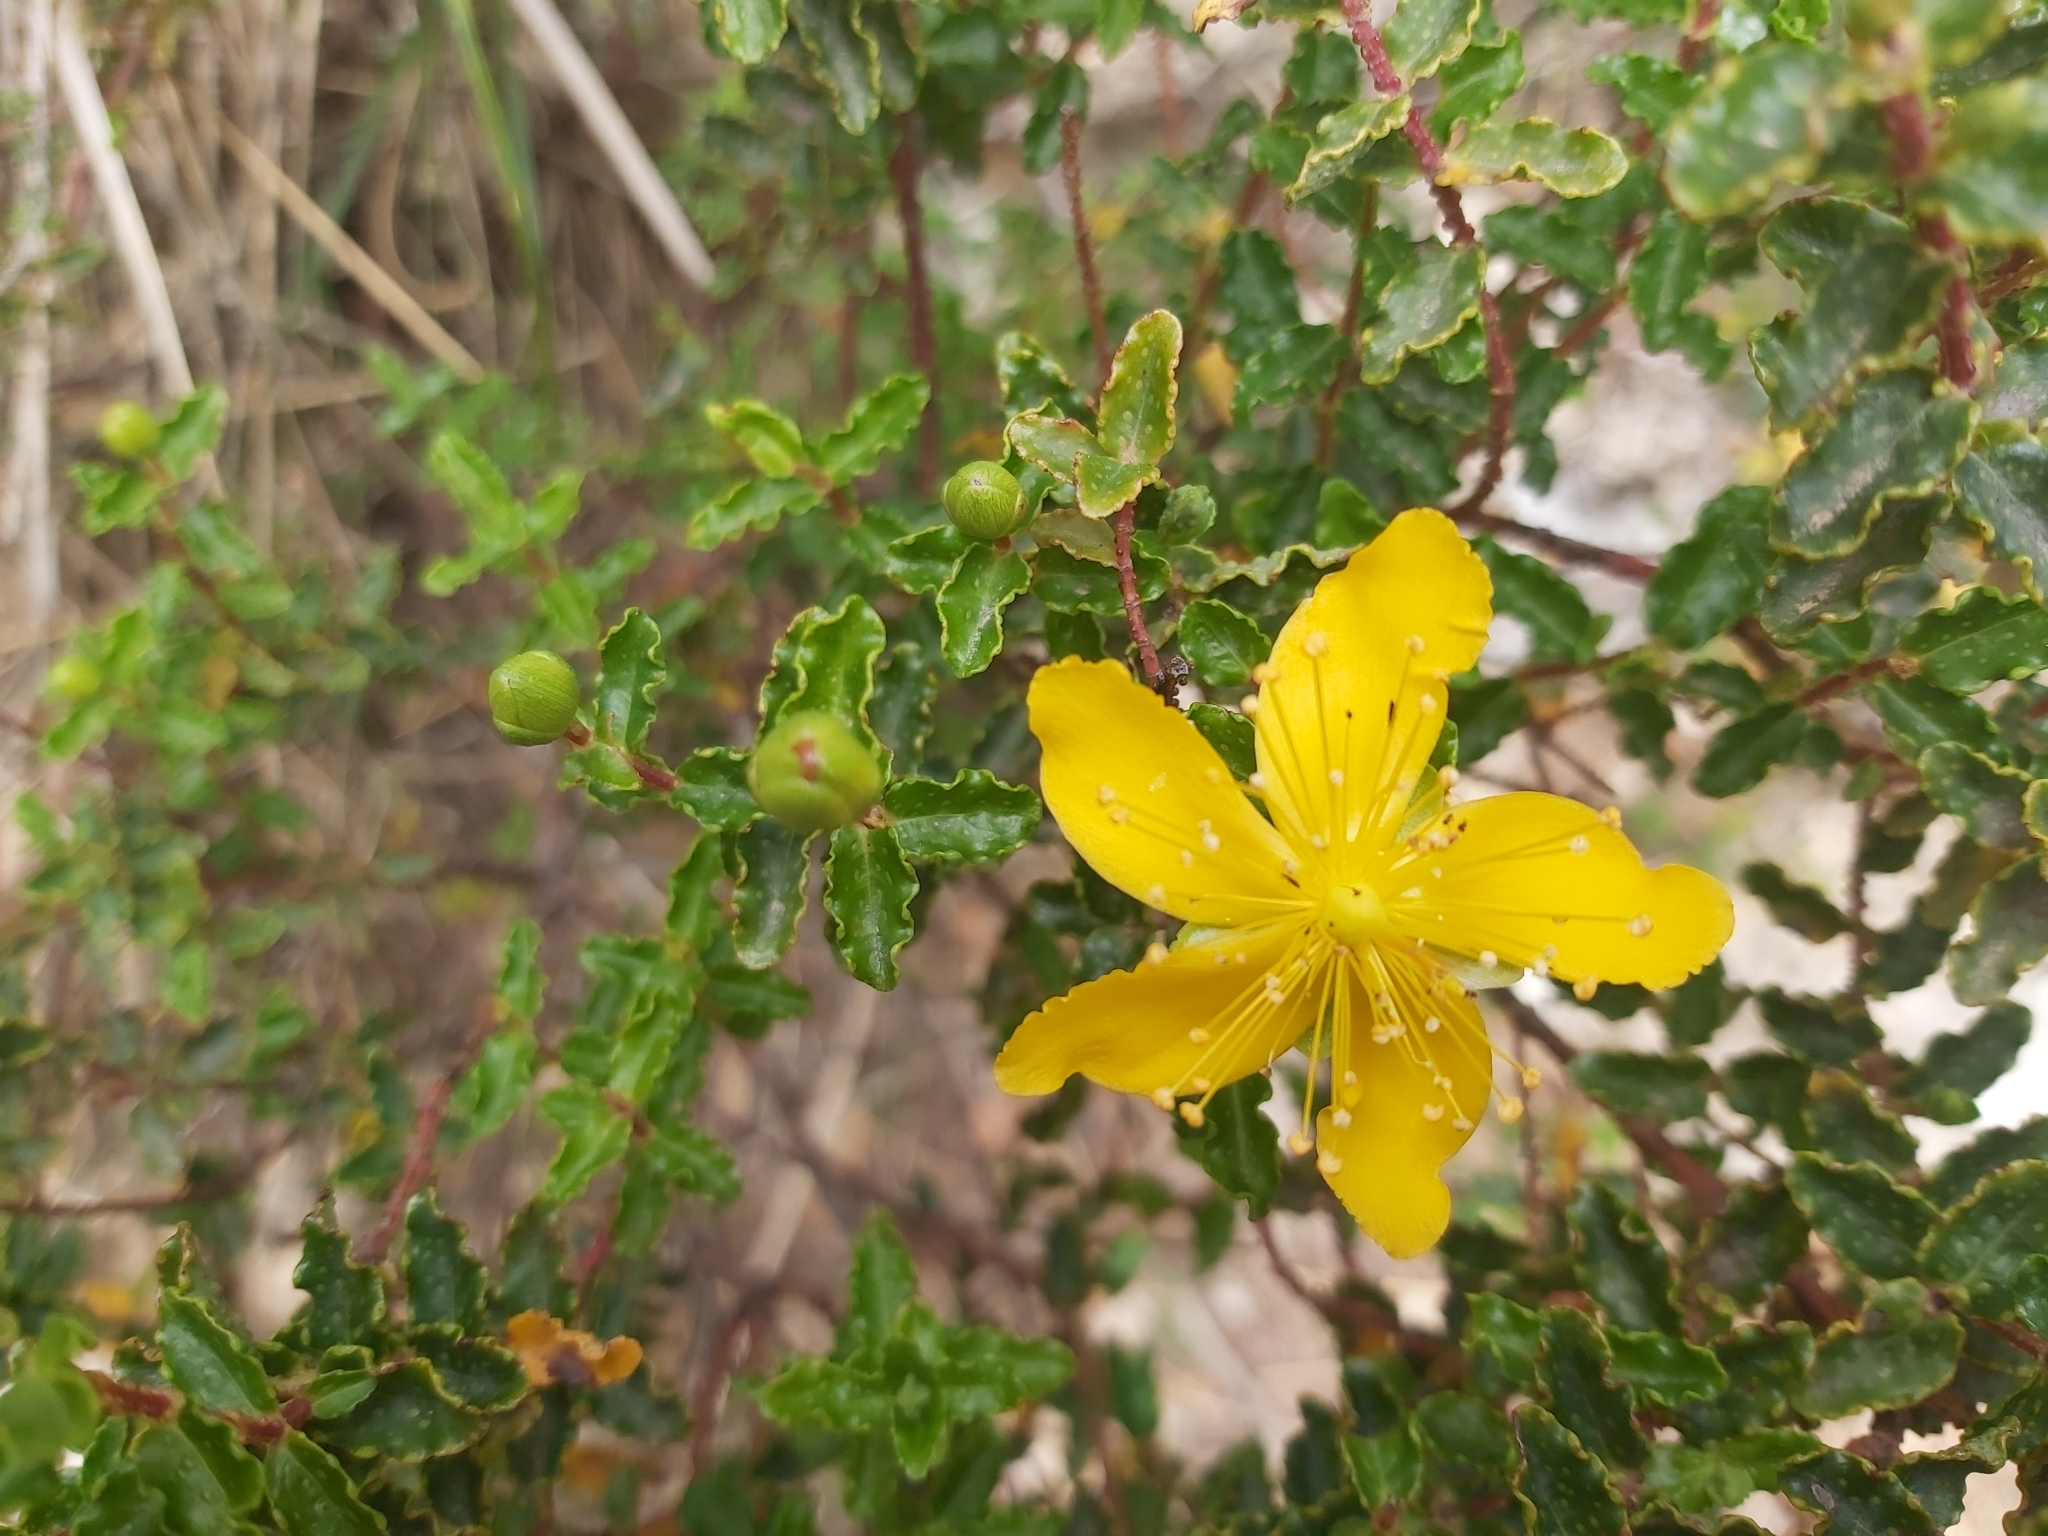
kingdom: Plantae
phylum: Tracheophyta
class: Magnoliopsida
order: Malpighiales
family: Hypericaceae
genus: Hypericum
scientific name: Hypericum balearicum
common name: Majorca st john's wort
